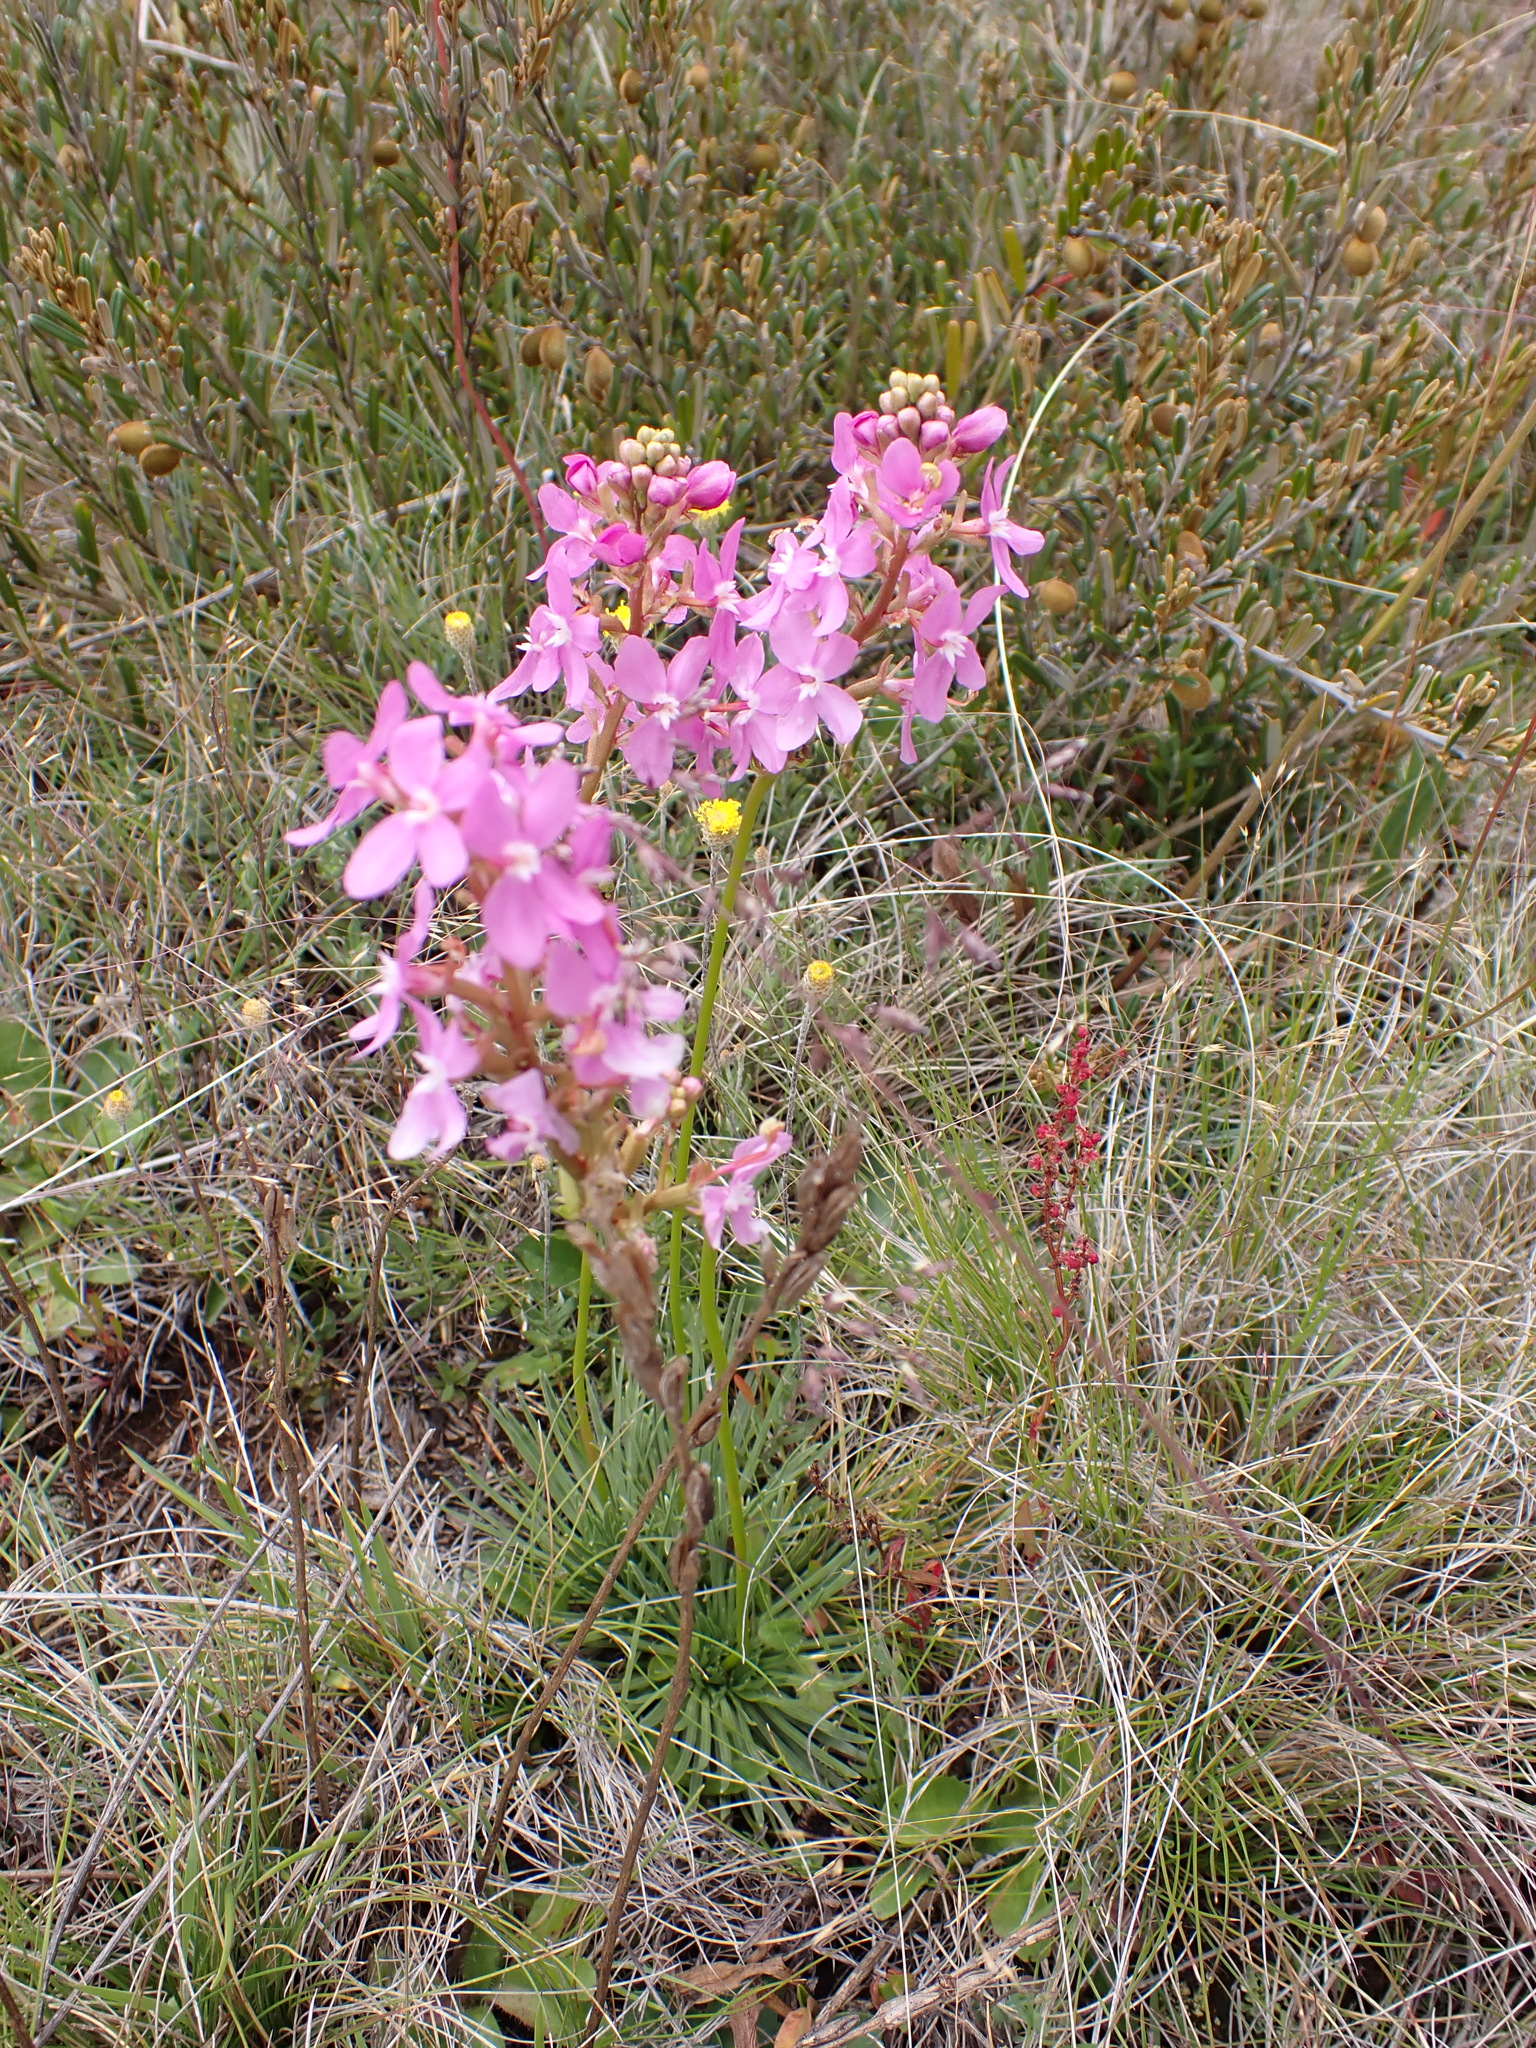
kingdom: Plantae
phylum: Tracheophyta
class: Magnoliopsida
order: Asterales
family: Stylidiaceae
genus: Stylidium
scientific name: Stylidium montanum
